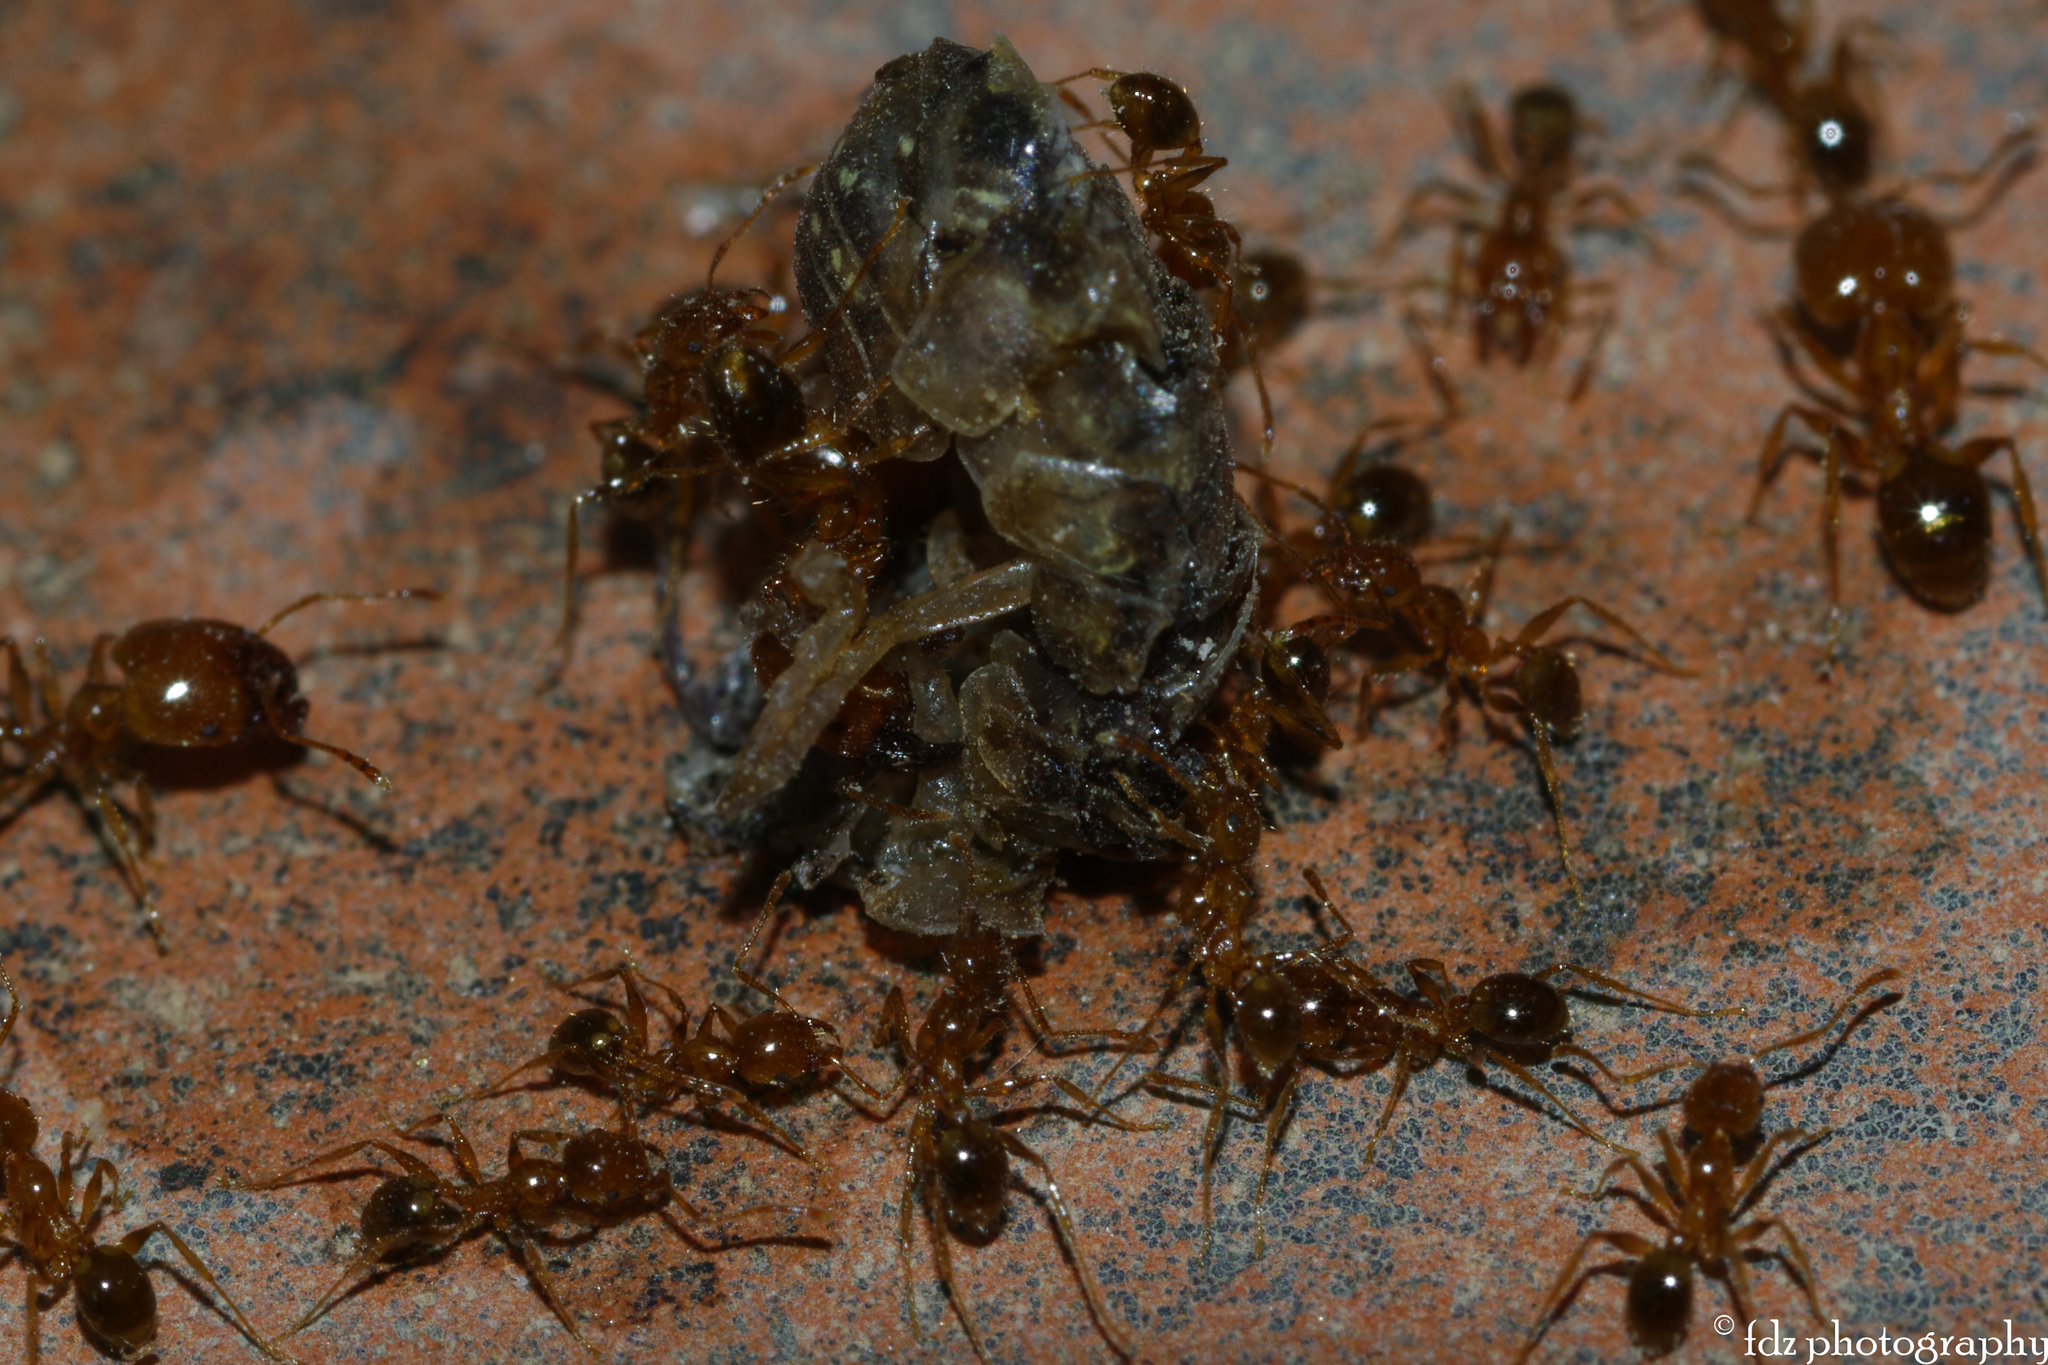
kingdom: Animalia
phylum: Arthropoda
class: Insecta
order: Hymenoptera
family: Formicidae
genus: Pheidole
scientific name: Pheidole pallidula
